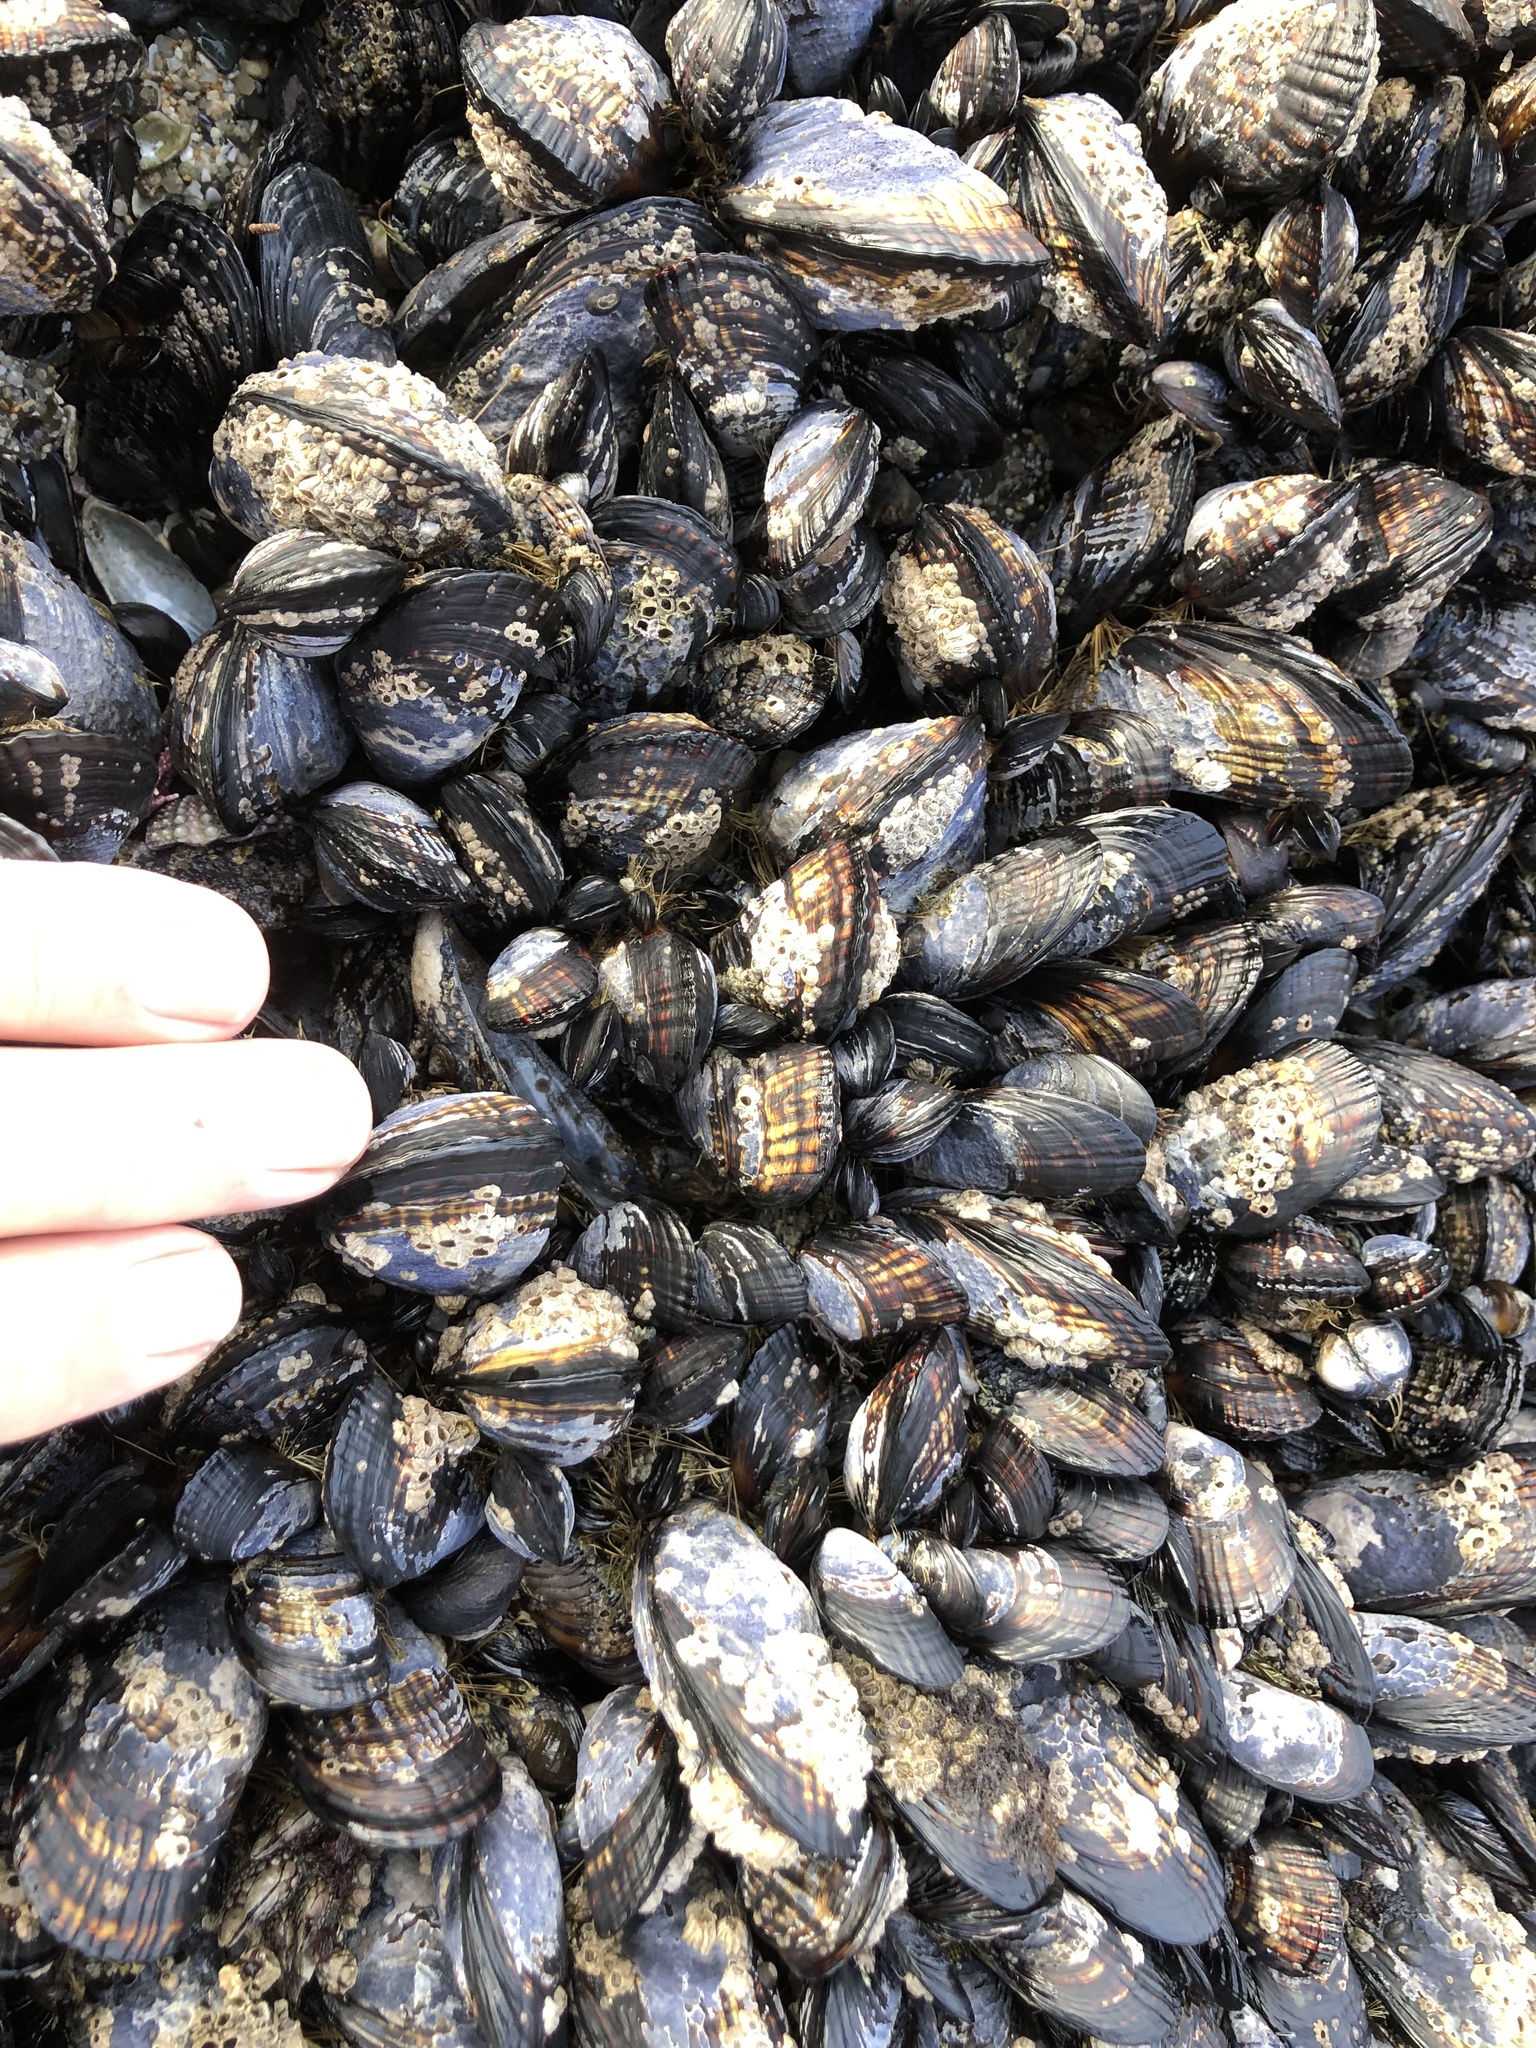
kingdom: Animalia
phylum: Mollusca
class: Bivalvia
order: Mytilida
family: Mytilidae
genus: Mytilus
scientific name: Mytilus californianus
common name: California mussel
